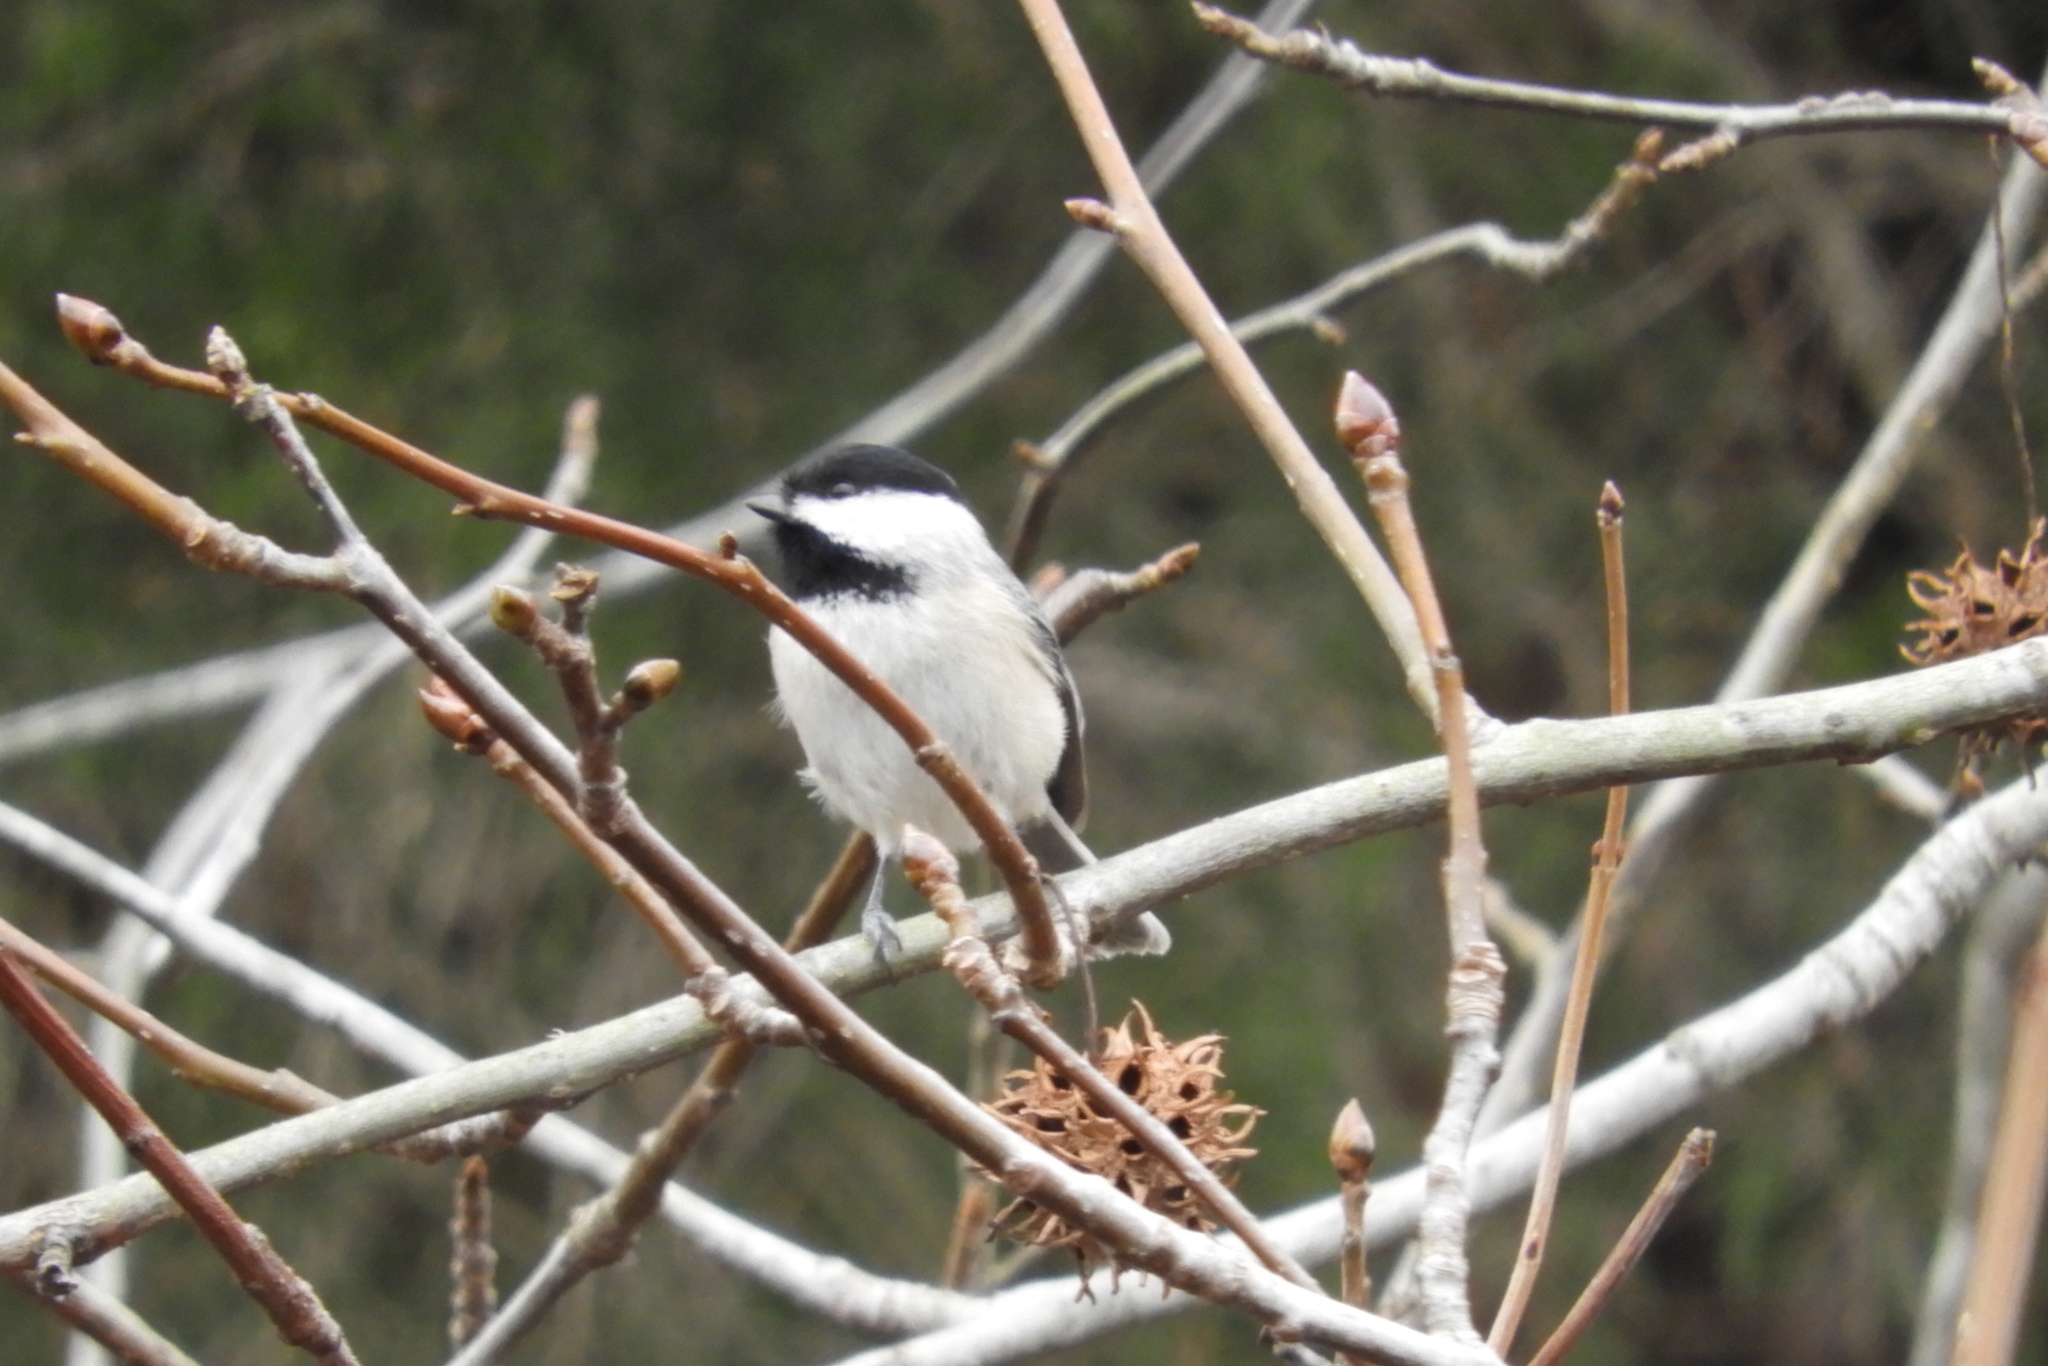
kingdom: Animalia
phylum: Chordata
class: Aves
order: Passeriformes
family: Paridae
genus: Poecile
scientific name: Poecile carolinensis
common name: Carolina chickadee
